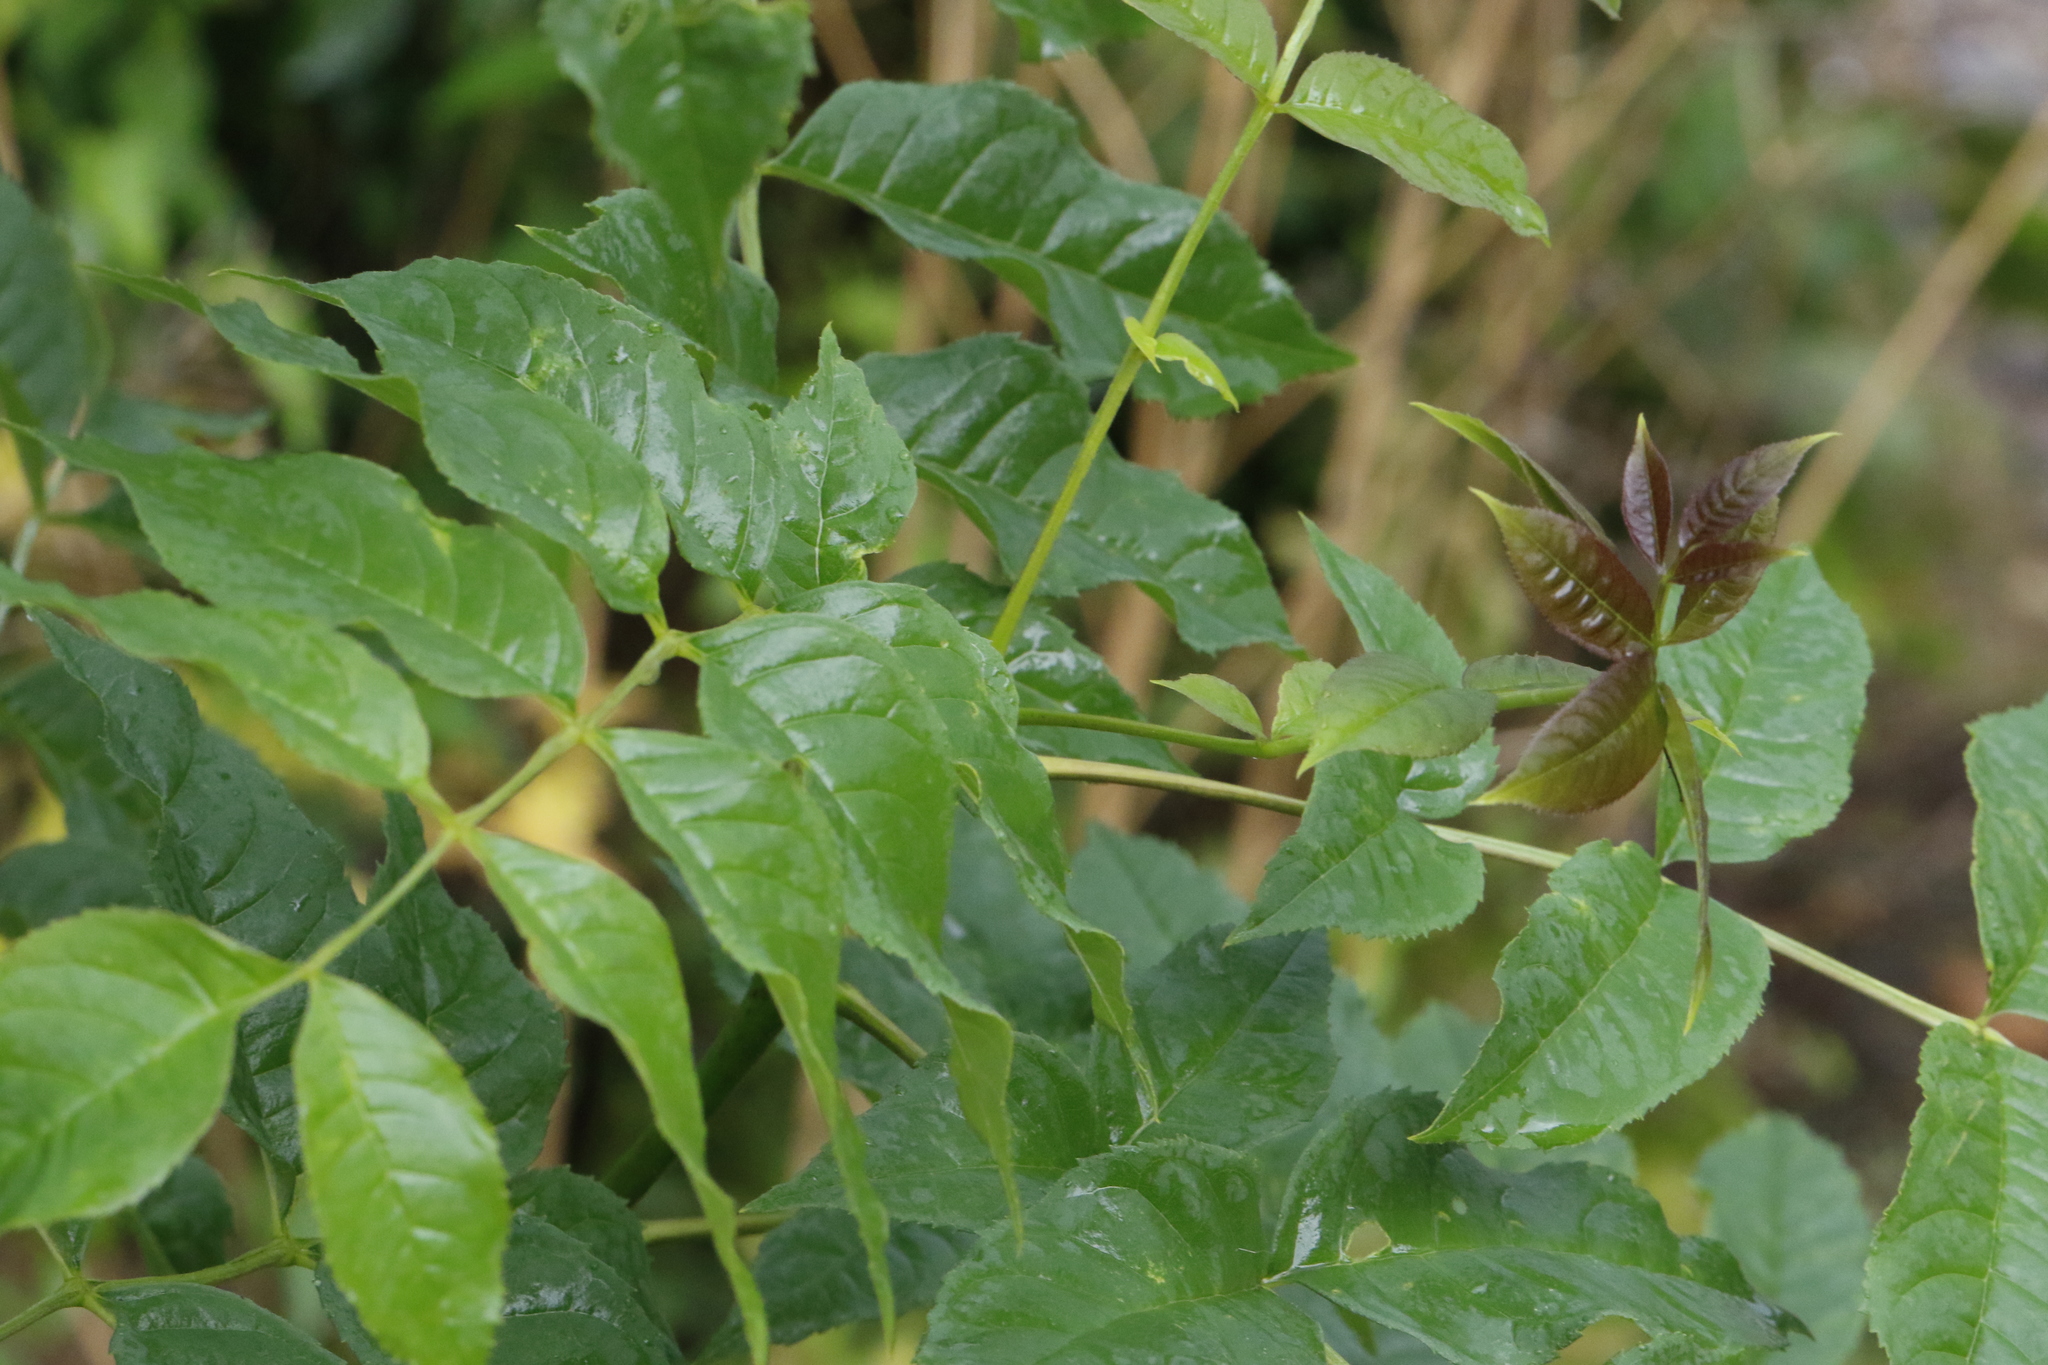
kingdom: Plantae
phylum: Tracheophyta
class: Magnoliopsida
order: Lamiales
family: Oleaceae
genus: Fraxinus
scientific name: Fraxinus excelsior
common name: European ash
